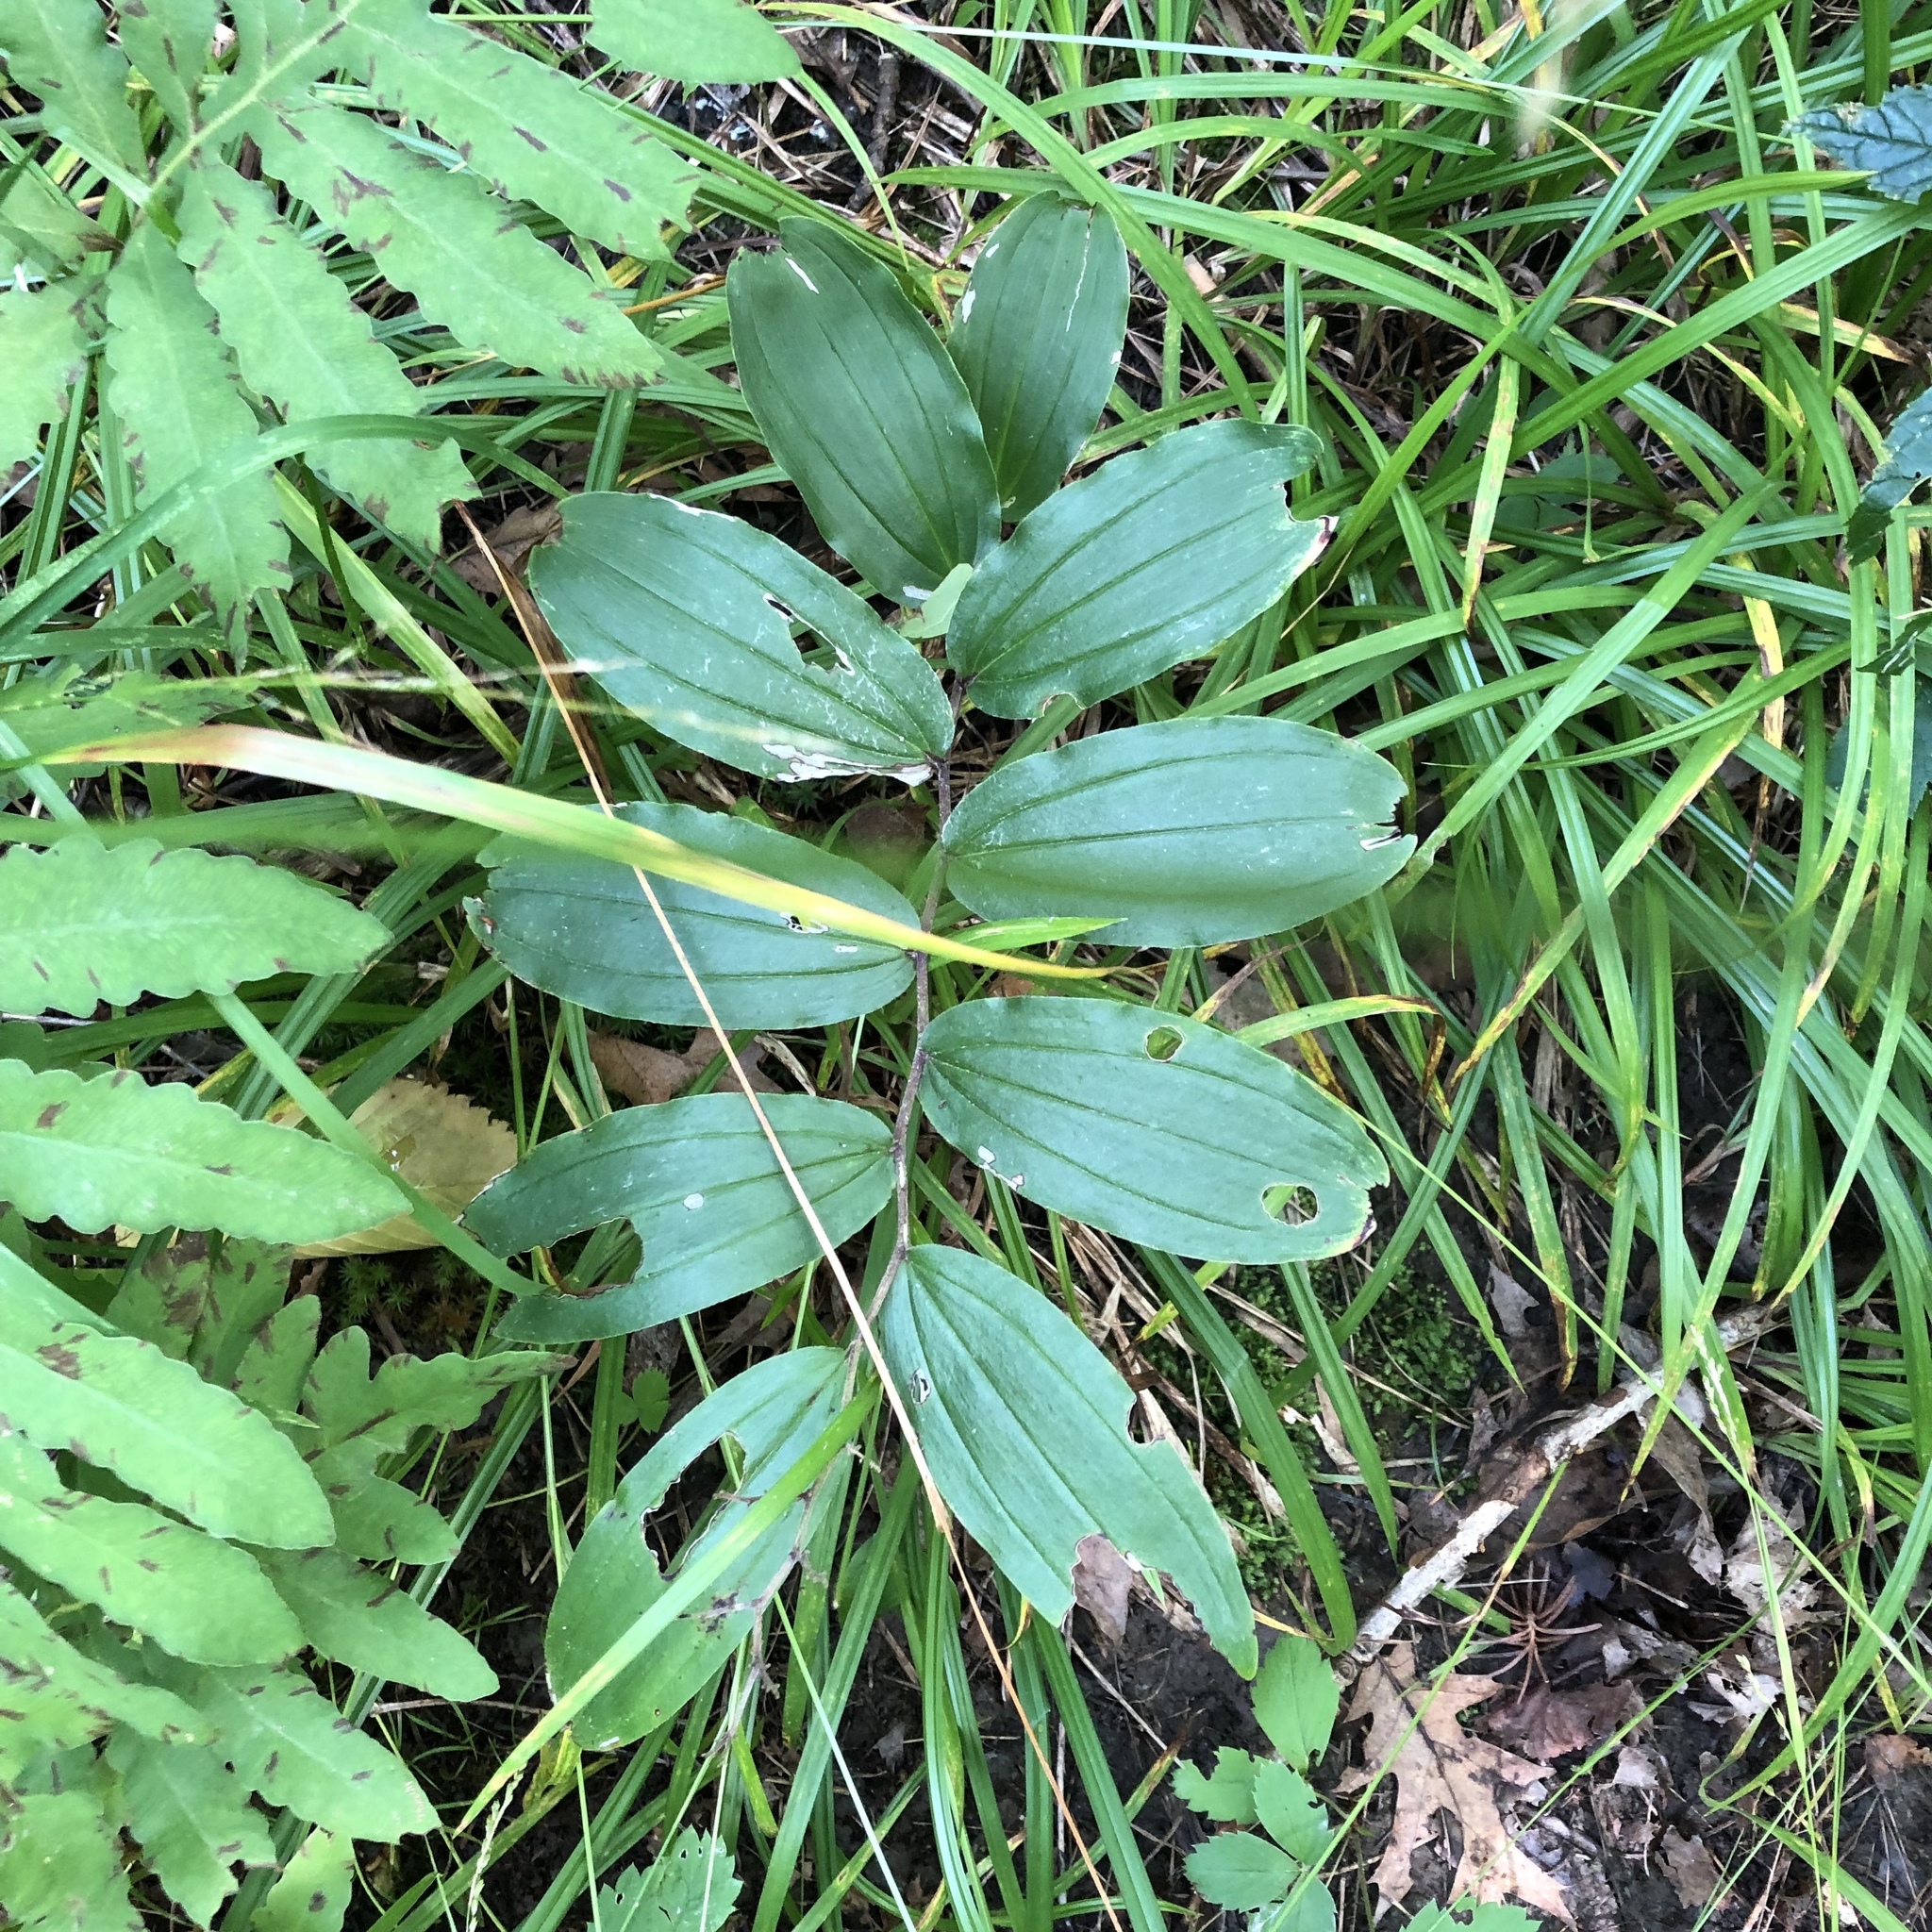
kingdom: Plantae
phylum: Tracheophyta
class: Liliopsida
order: Asparagales
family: Asparagaceae
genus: Maianthemum
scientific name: Maianthemum racemosum
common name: False spikenard
